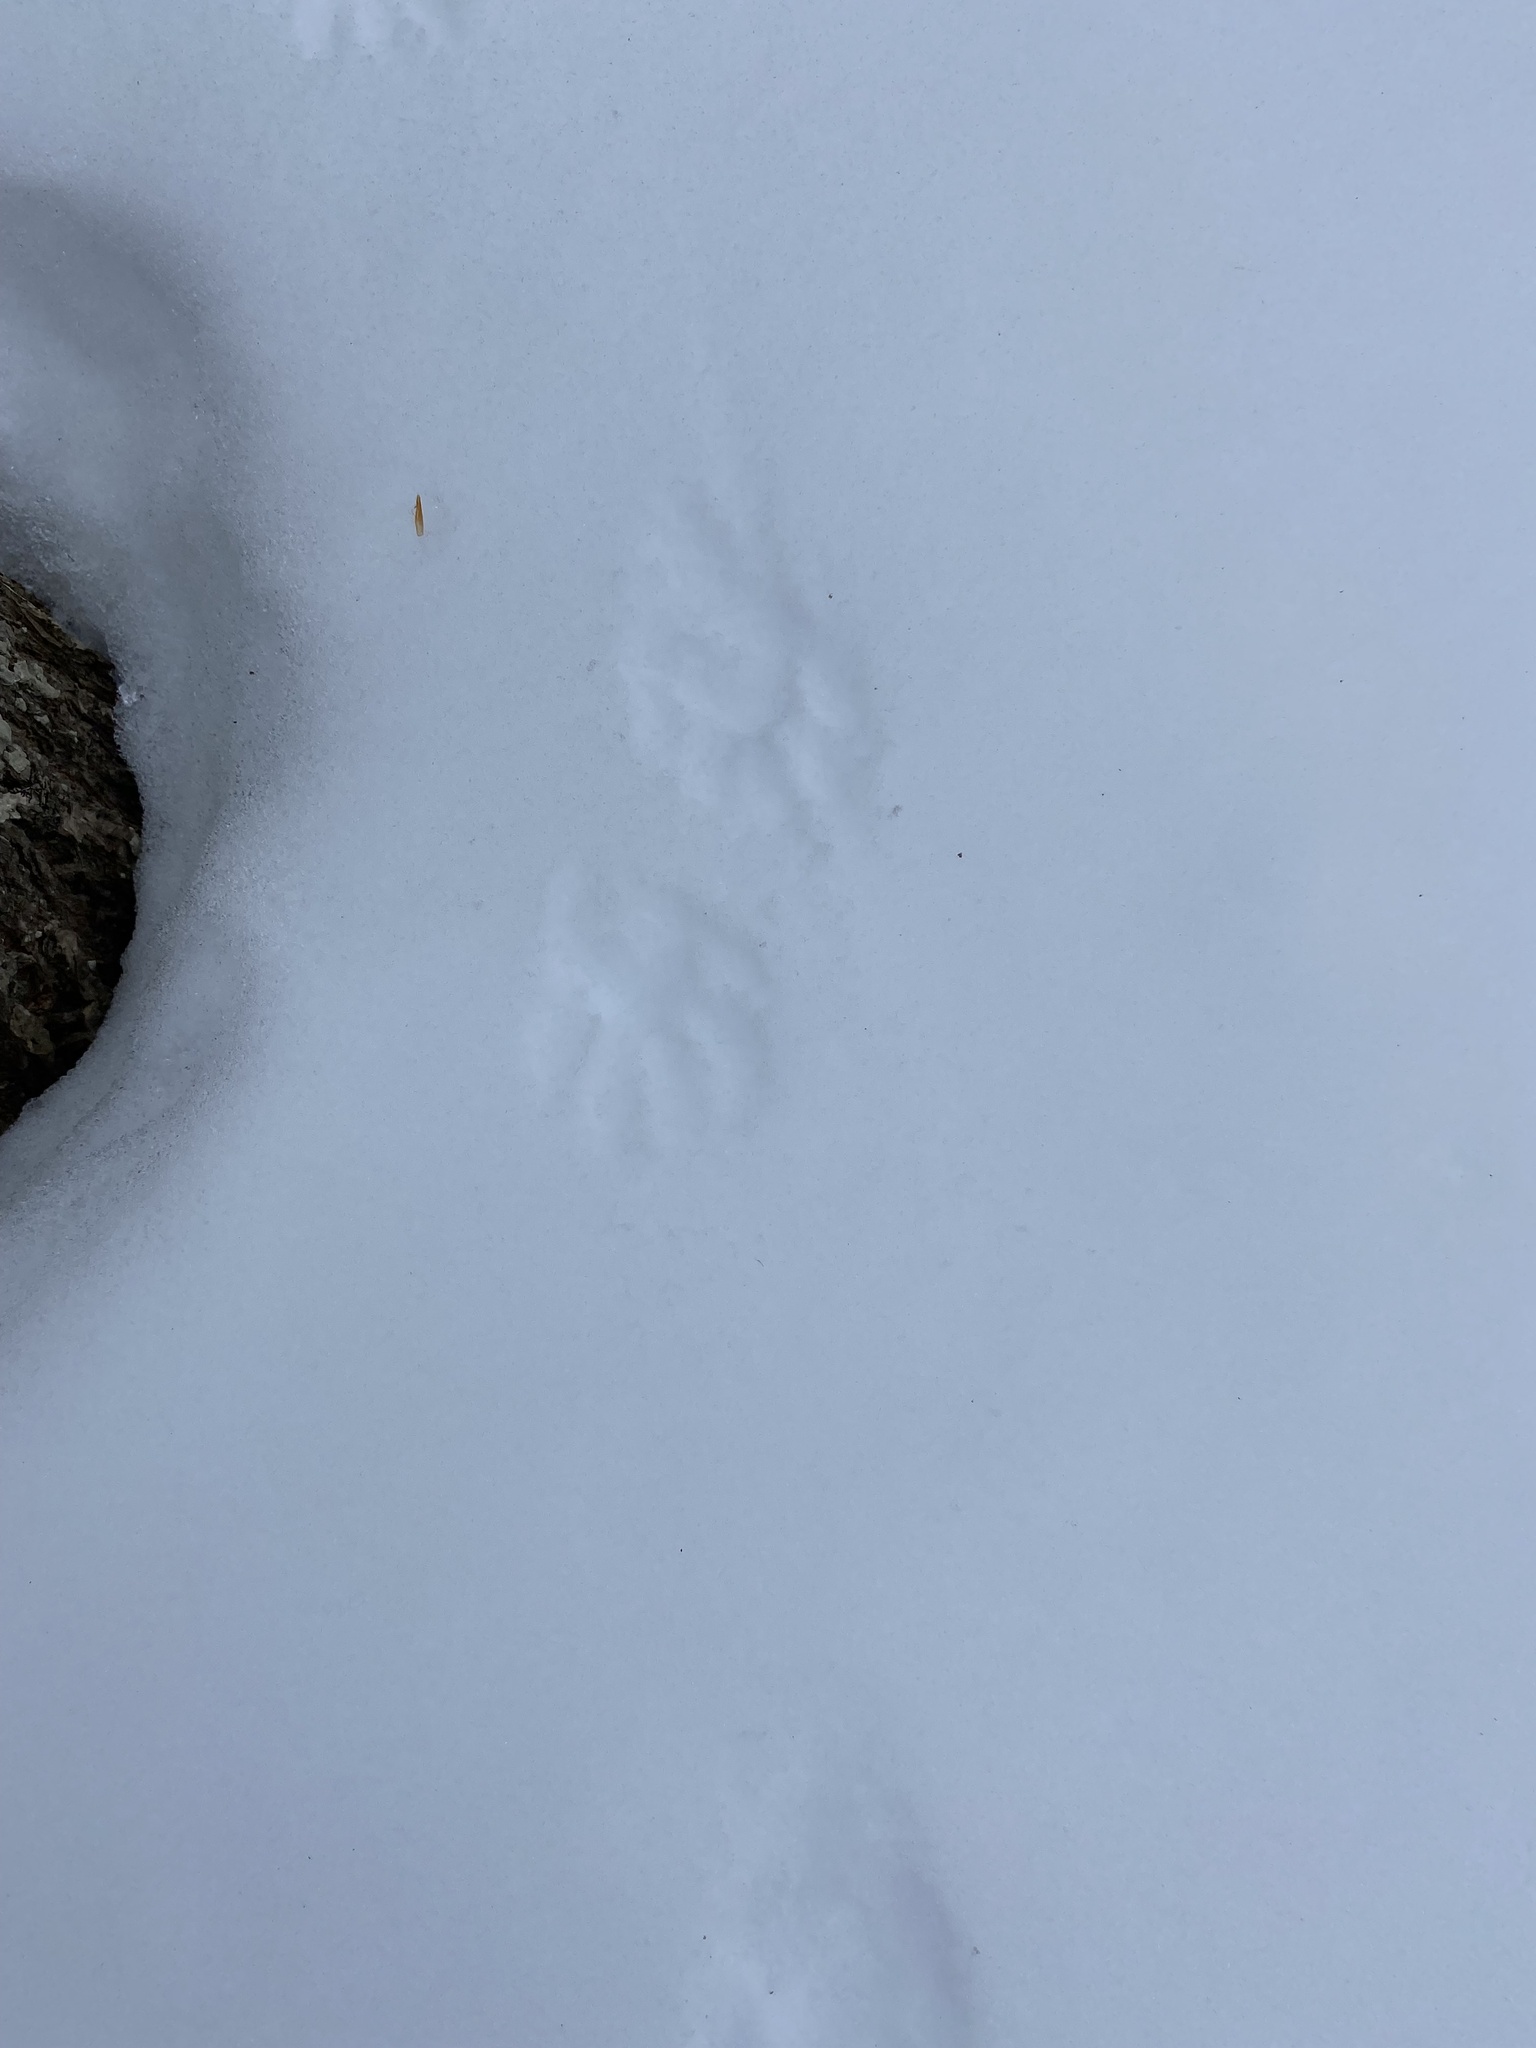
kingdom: Animalia
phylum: Chordata
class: Mammalia
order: Carnivora
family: Procyonidae
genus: Procyon
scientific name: Procyon lotor
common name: Raccoon
